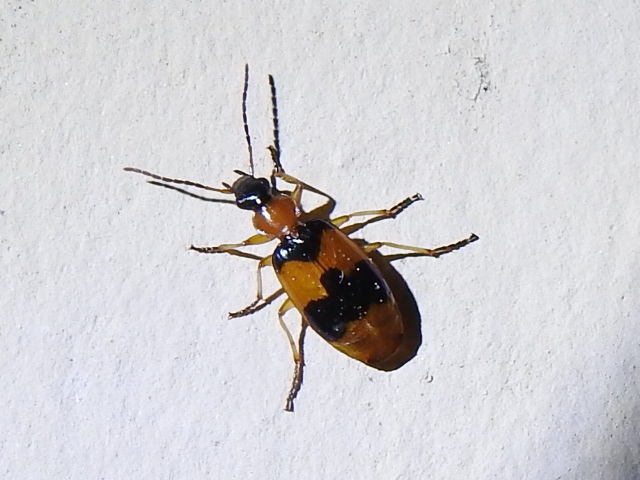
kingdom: Animalia
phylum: Arthropoda
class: Insecta
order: Coleoptera
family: Carabidae
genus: Lebia
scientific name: Lebia pulchella
